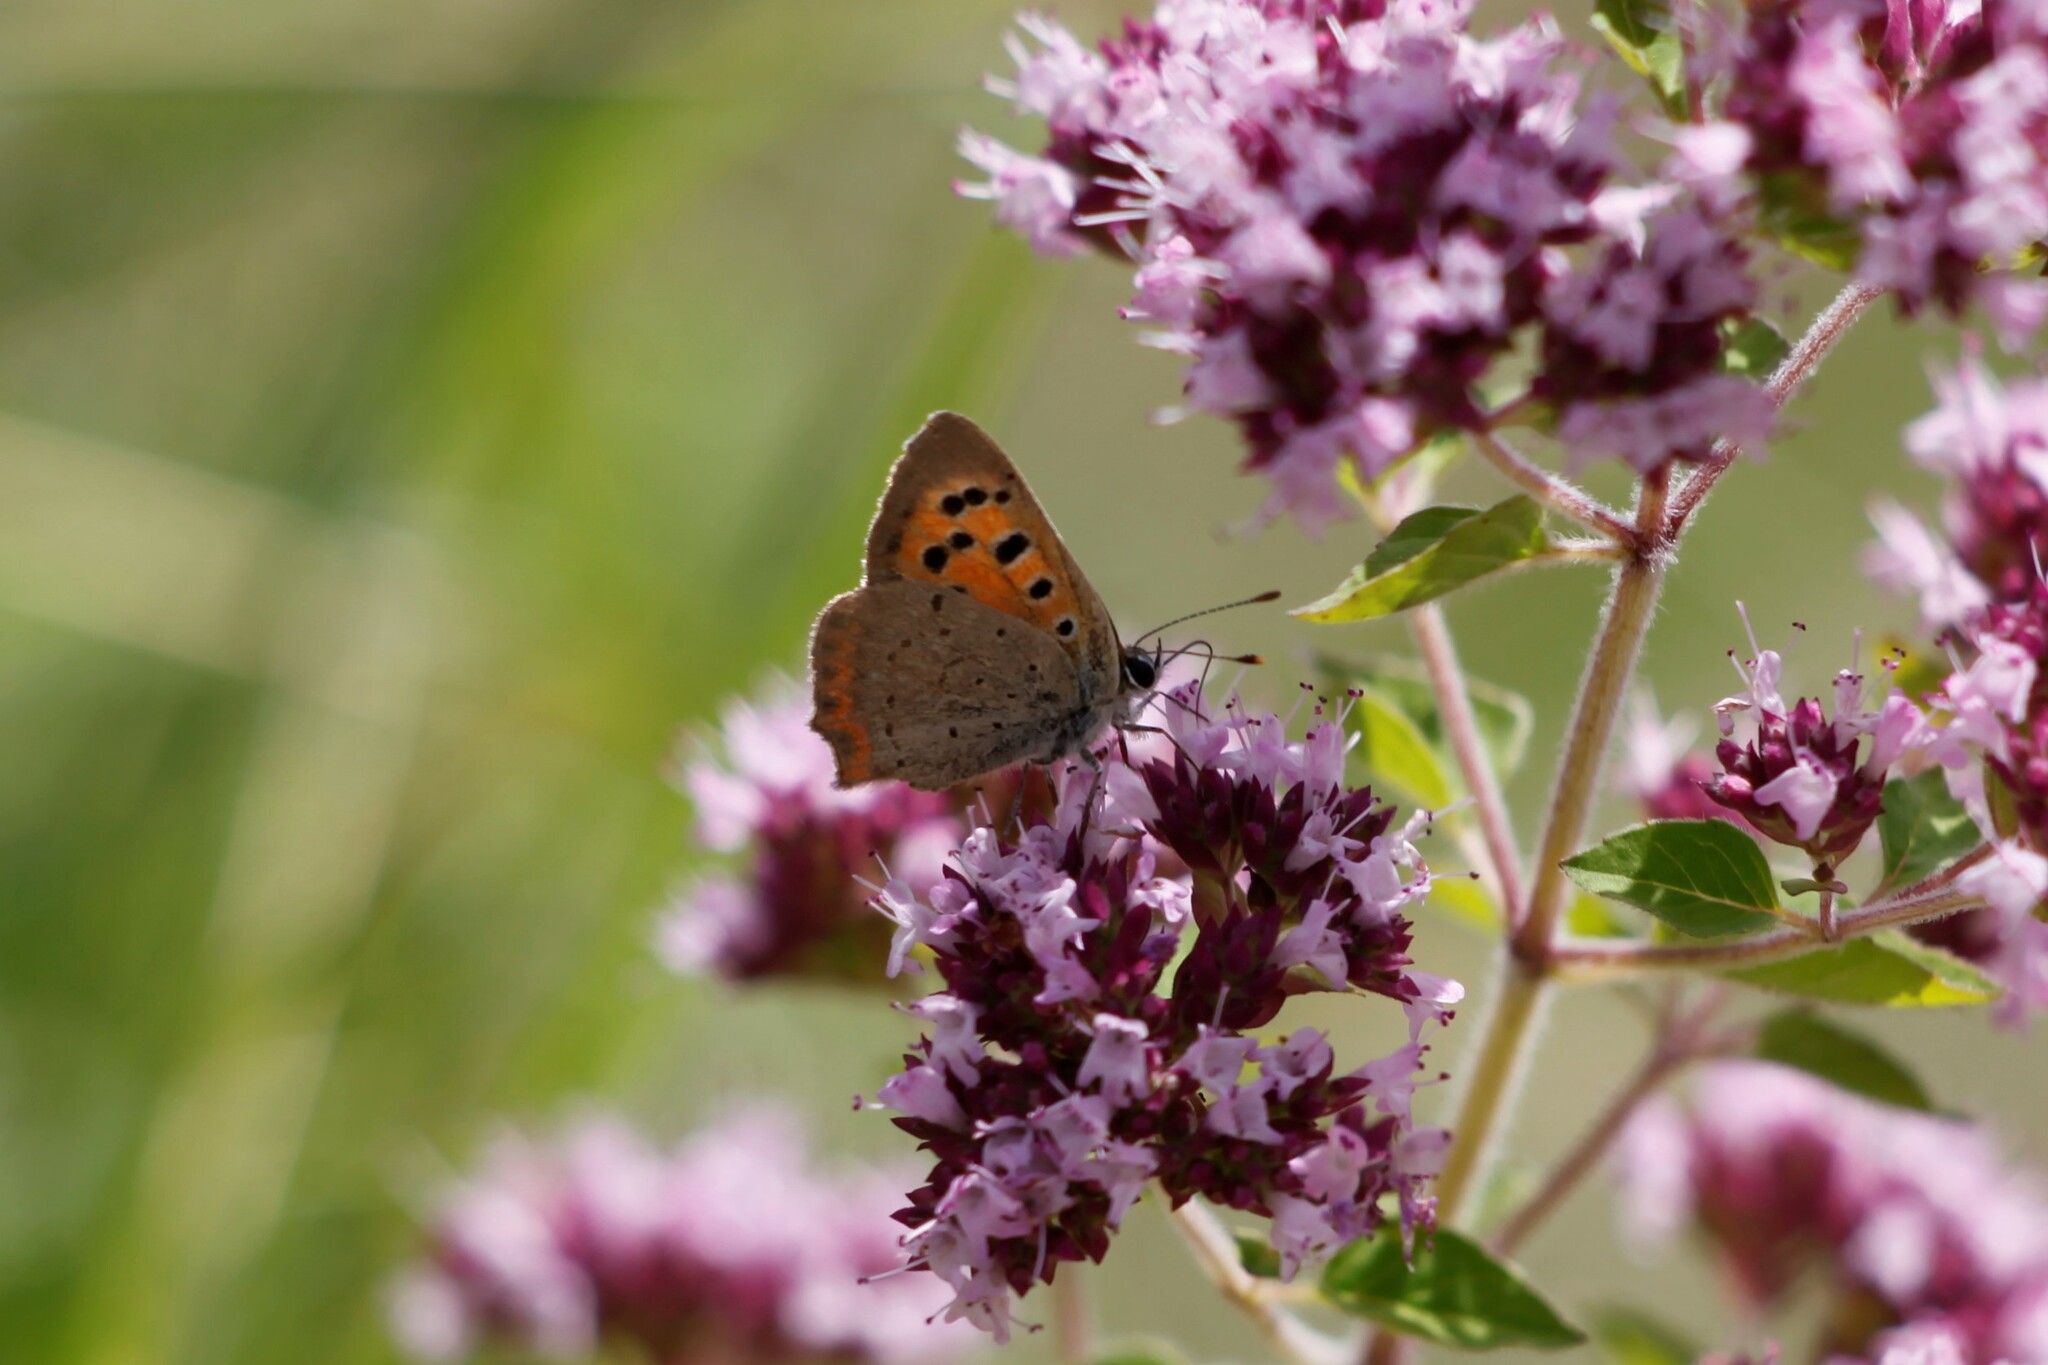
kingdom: Animalia
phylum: Arthropoda
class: Insecta
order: Lepidoptera
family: Lycaenidae
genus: Lycaena
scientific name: Lycaena phlaeas
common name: Small copper
